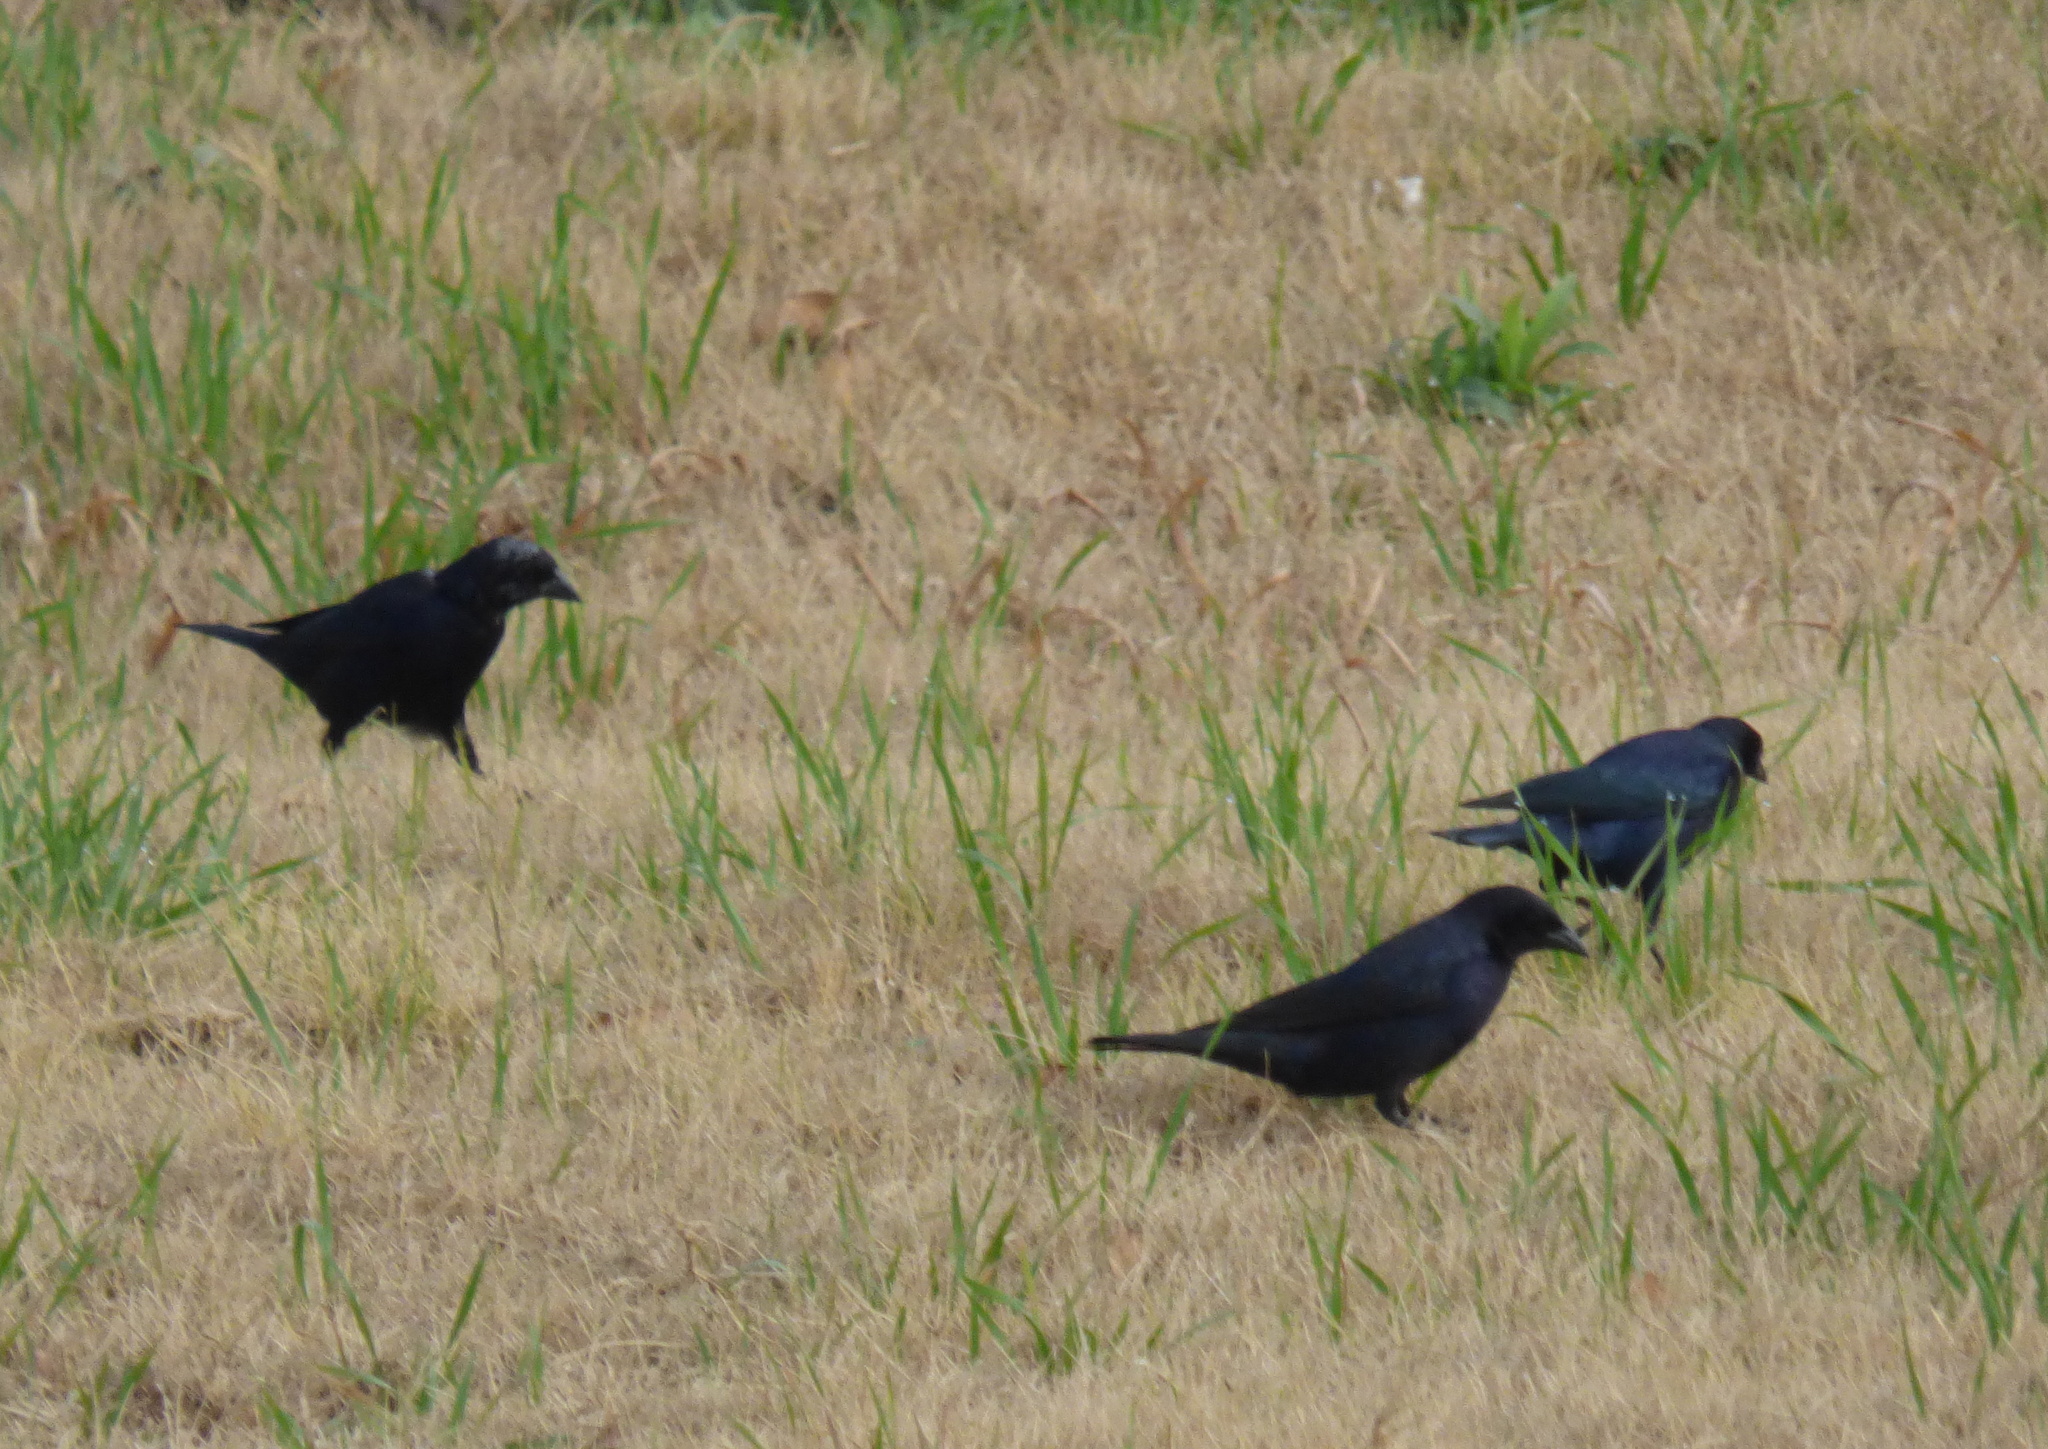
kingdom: Animalia
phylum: Chordata
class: Aves
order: Passeriformes
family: Icteridae
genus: Molothrus
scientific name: Molothrus bonariensis
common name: Shiny cowbird
